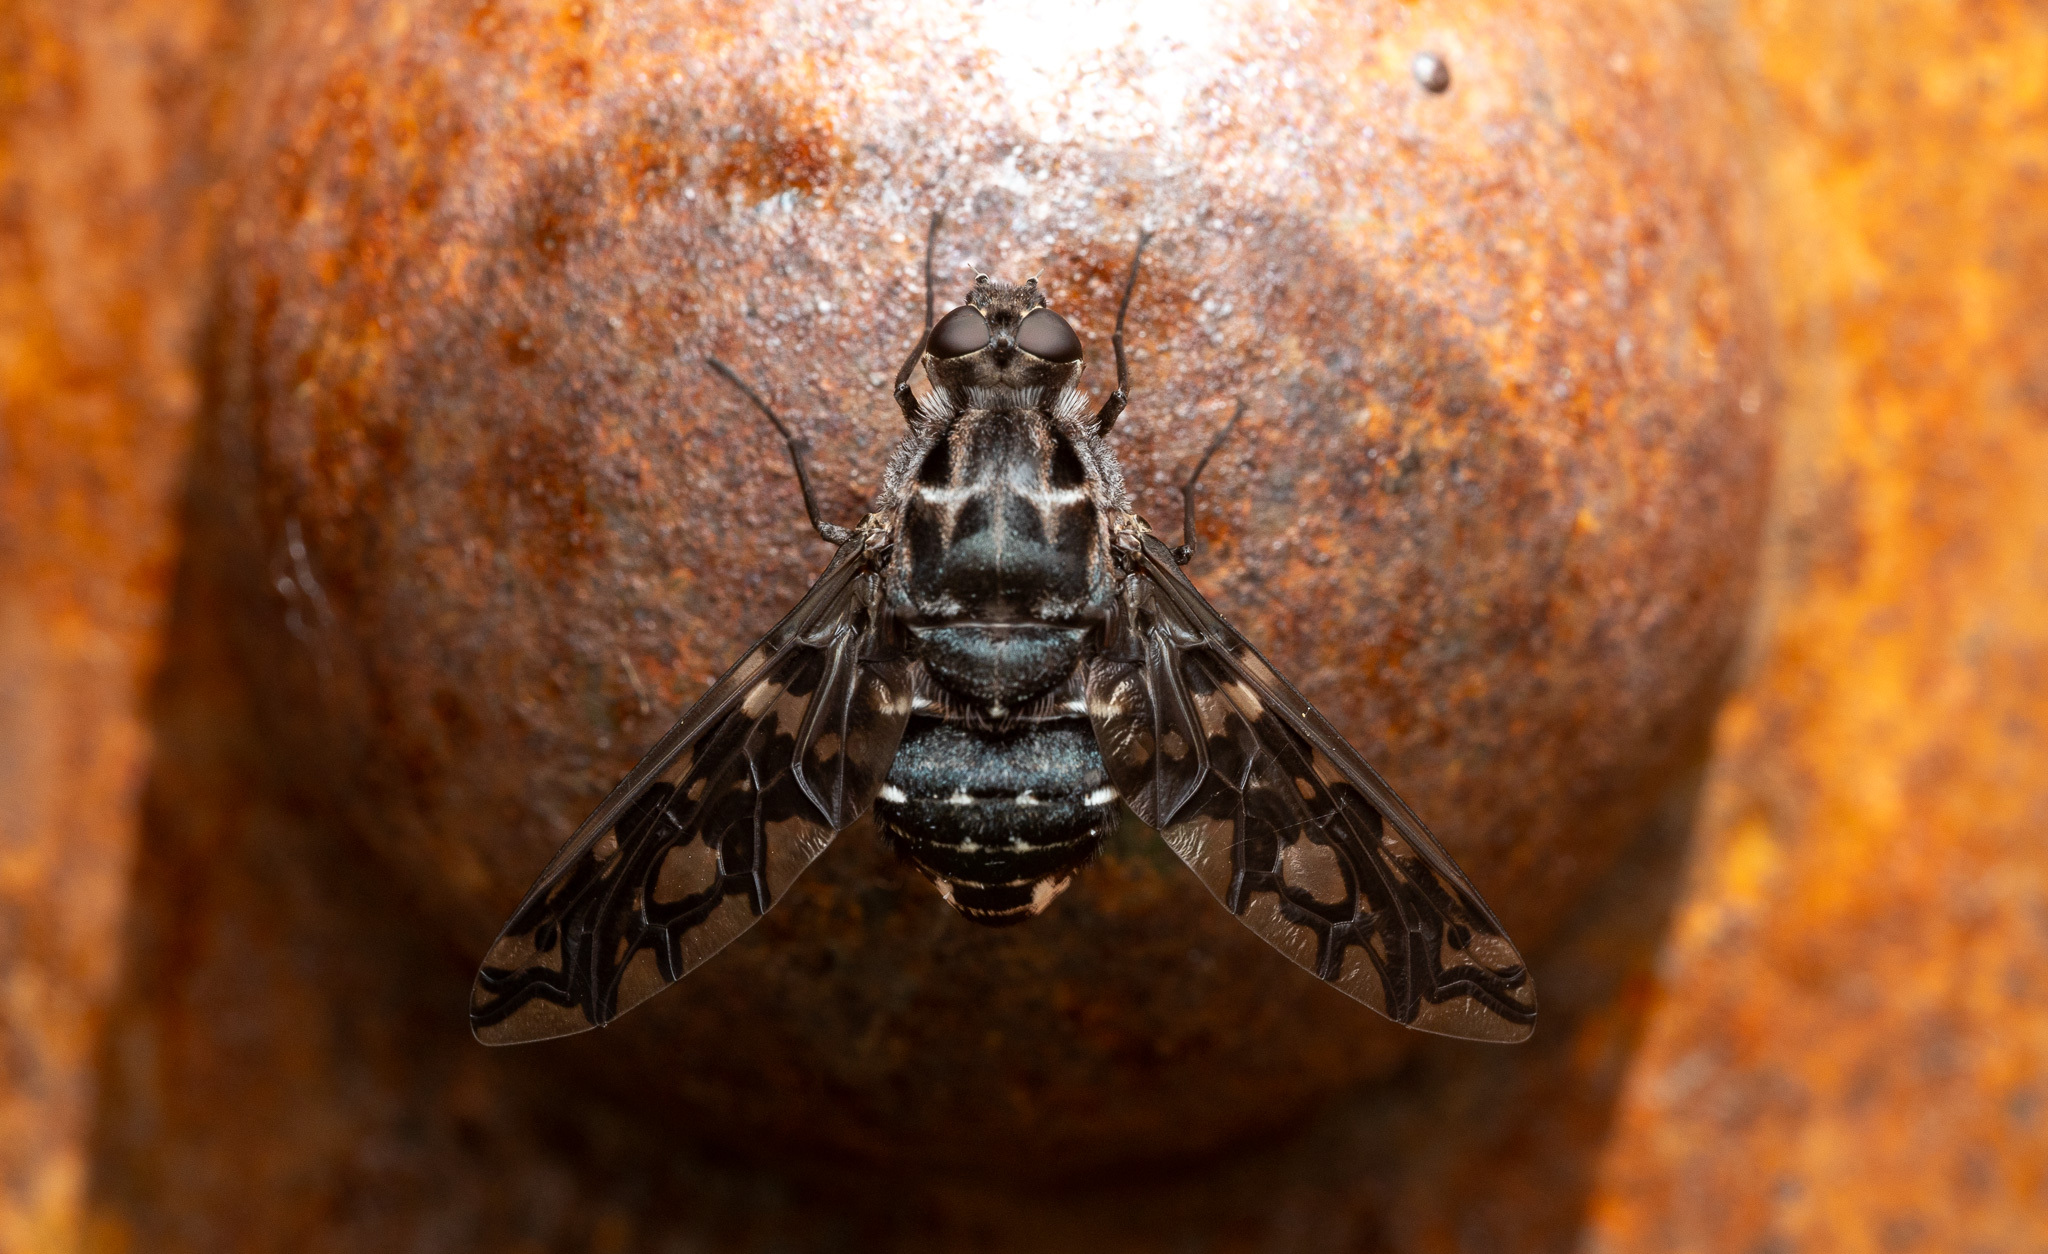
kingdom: Animalia
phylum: Arthropoda
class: Insecta
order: Diptera
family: Bombyliidae
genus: Xenox
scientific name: Xenox tigrinus
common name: Tiger bee fly
